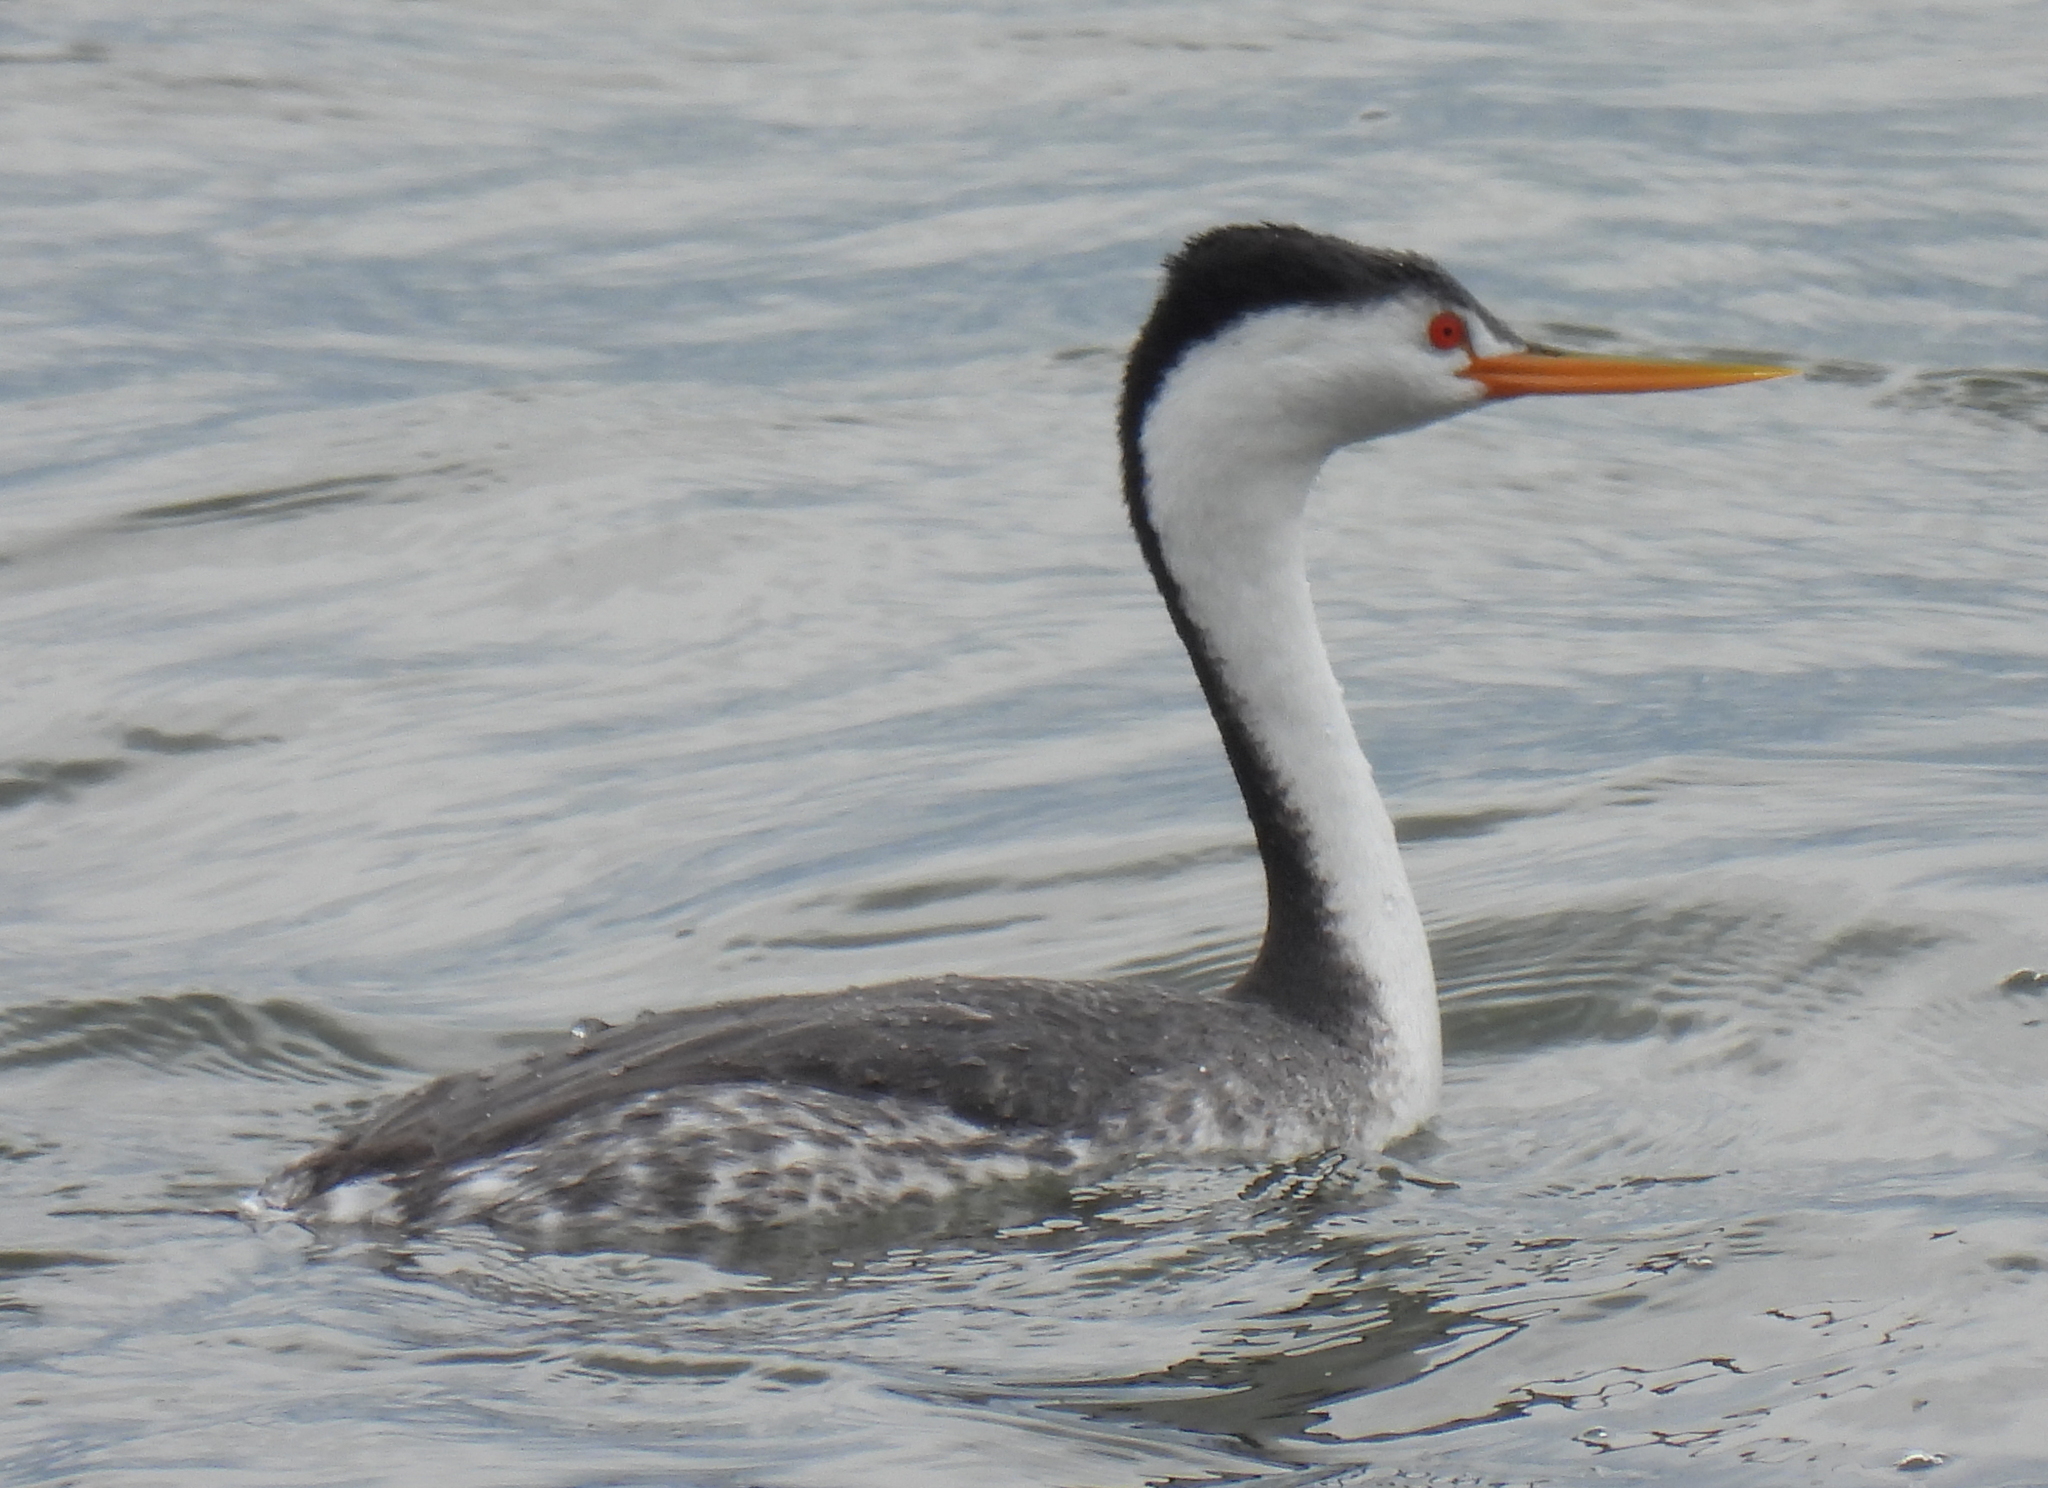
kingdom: Animalia
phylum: Chordata
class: Aves
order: Podicipediformes
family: Podicipedidae
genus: Aechmophorus
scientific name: Aechmophorus clarkii
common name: Clark's grebe
